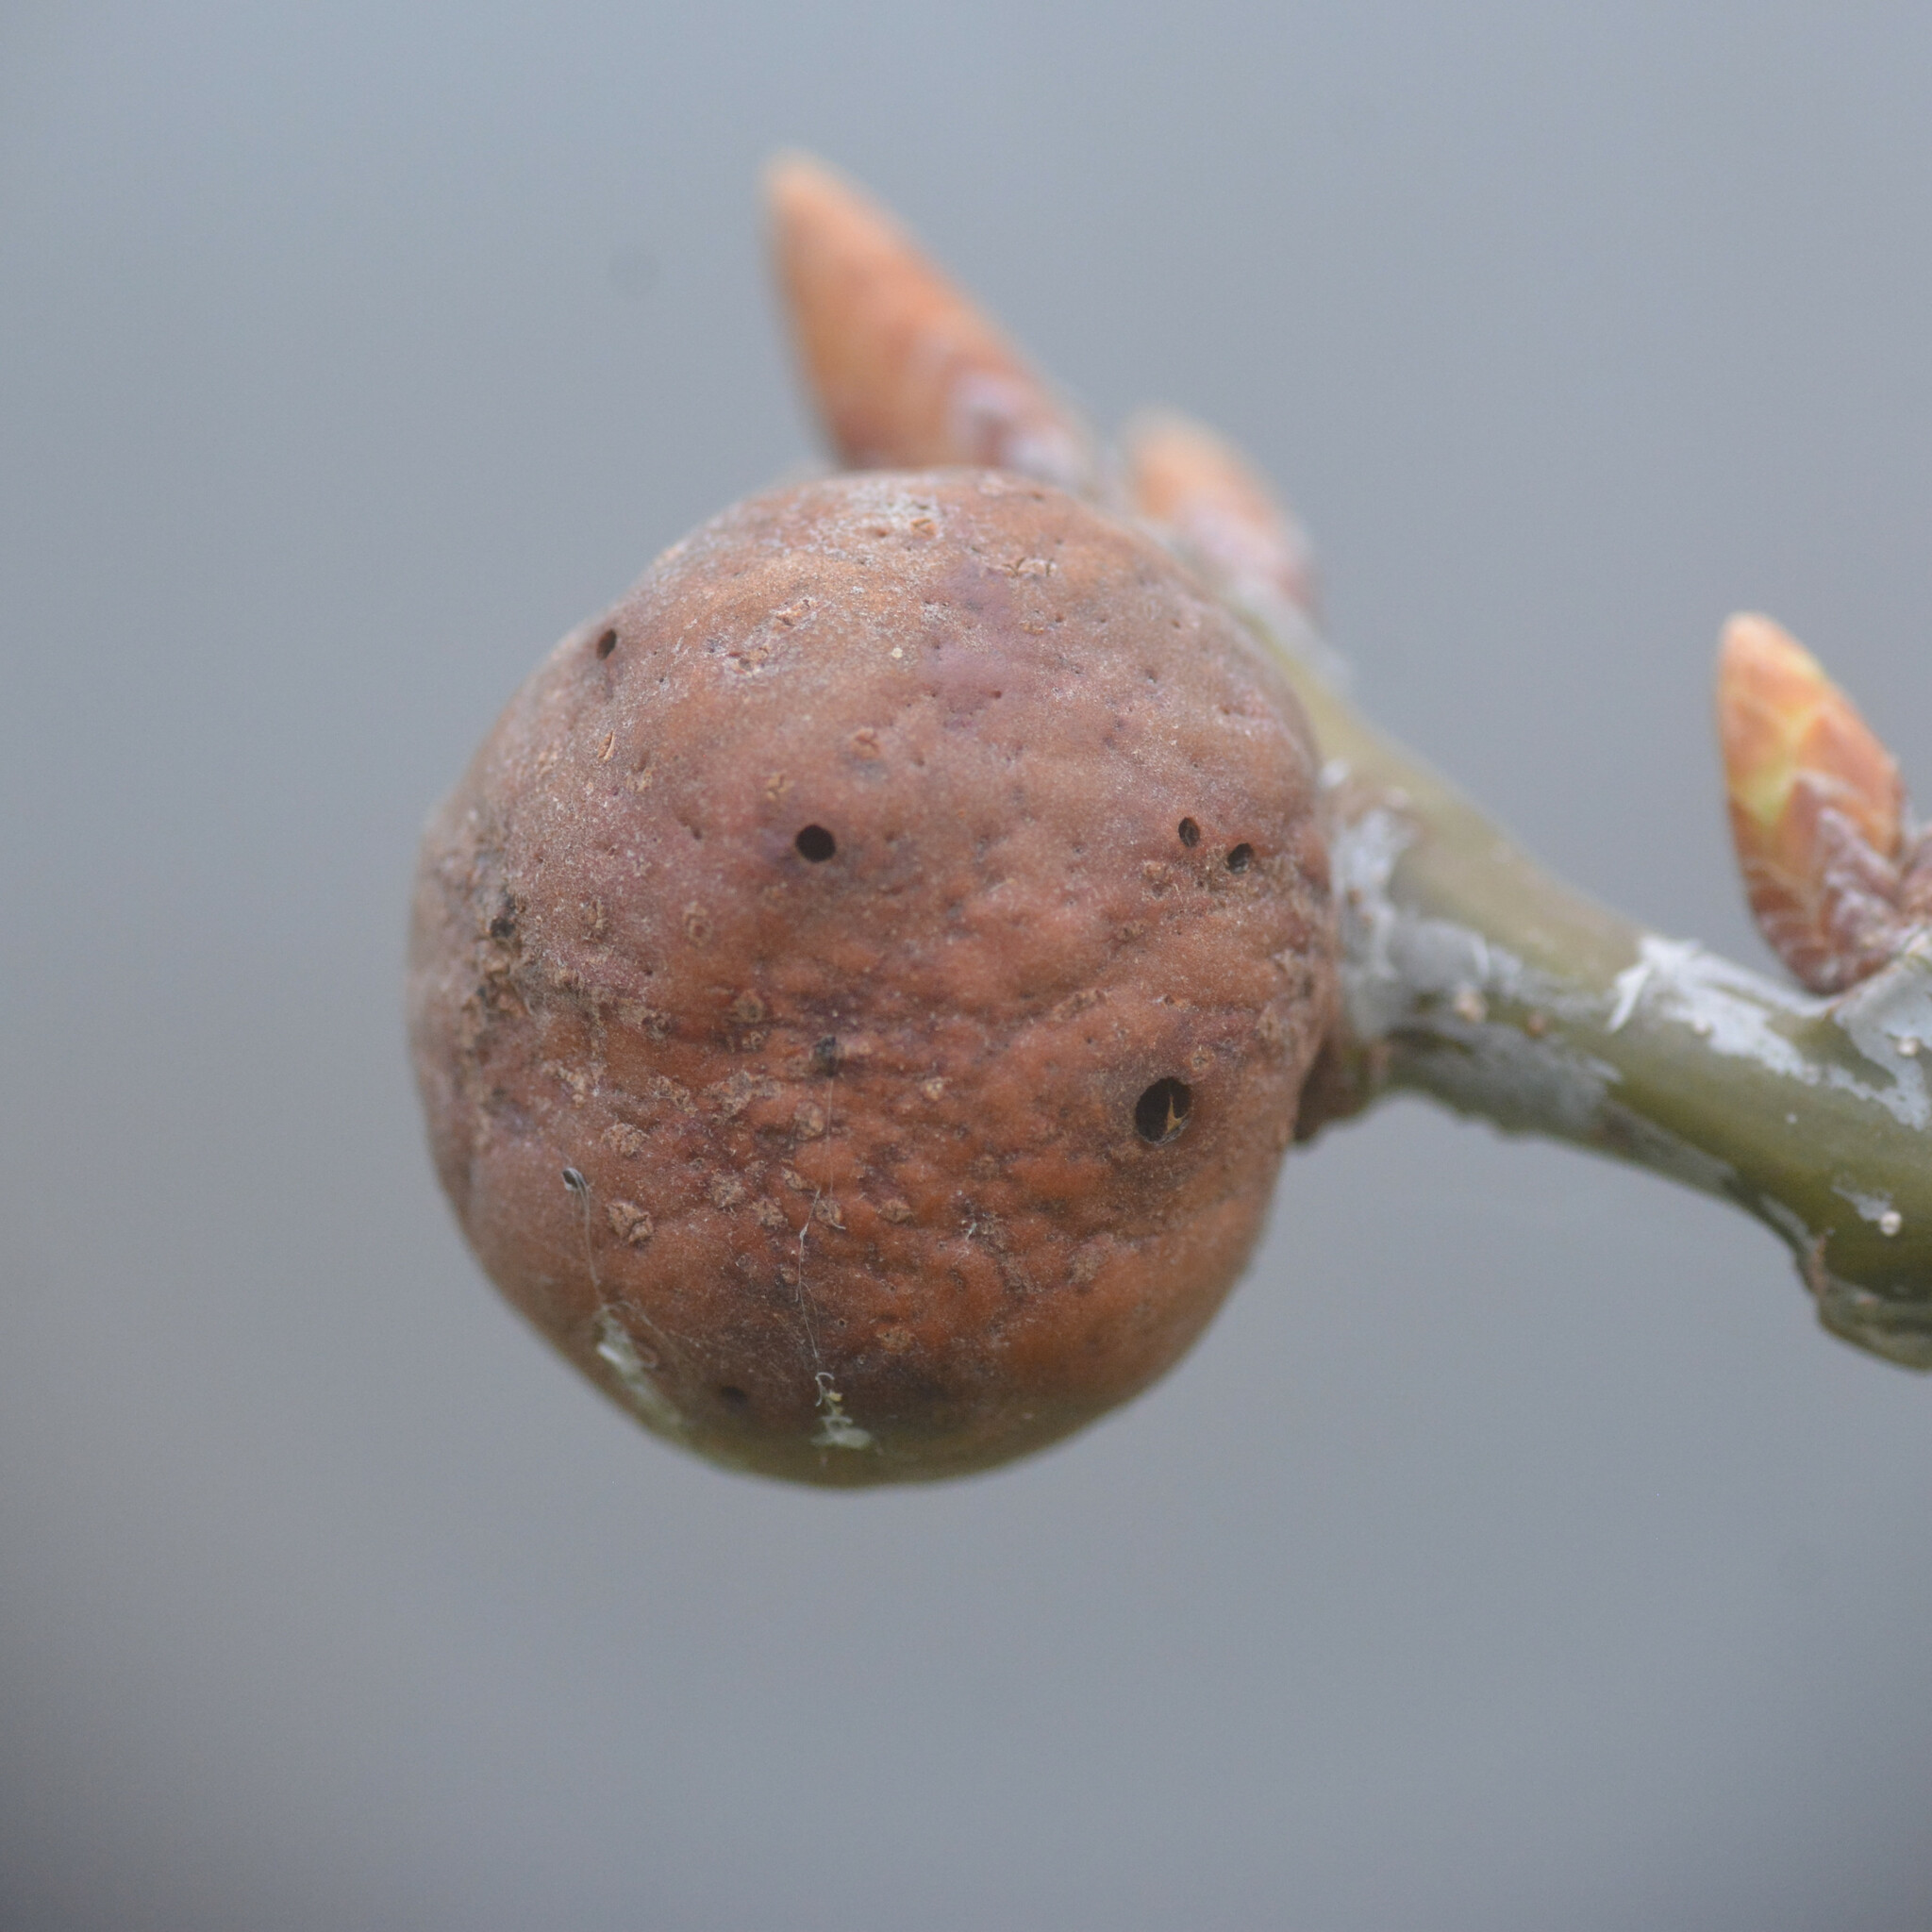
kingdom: Animalia
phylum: Arthropoda
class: Insecta
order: Hymenoptera
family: Cynipidae
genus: Andricus
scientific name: Andricus kollari
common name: Marble gall
